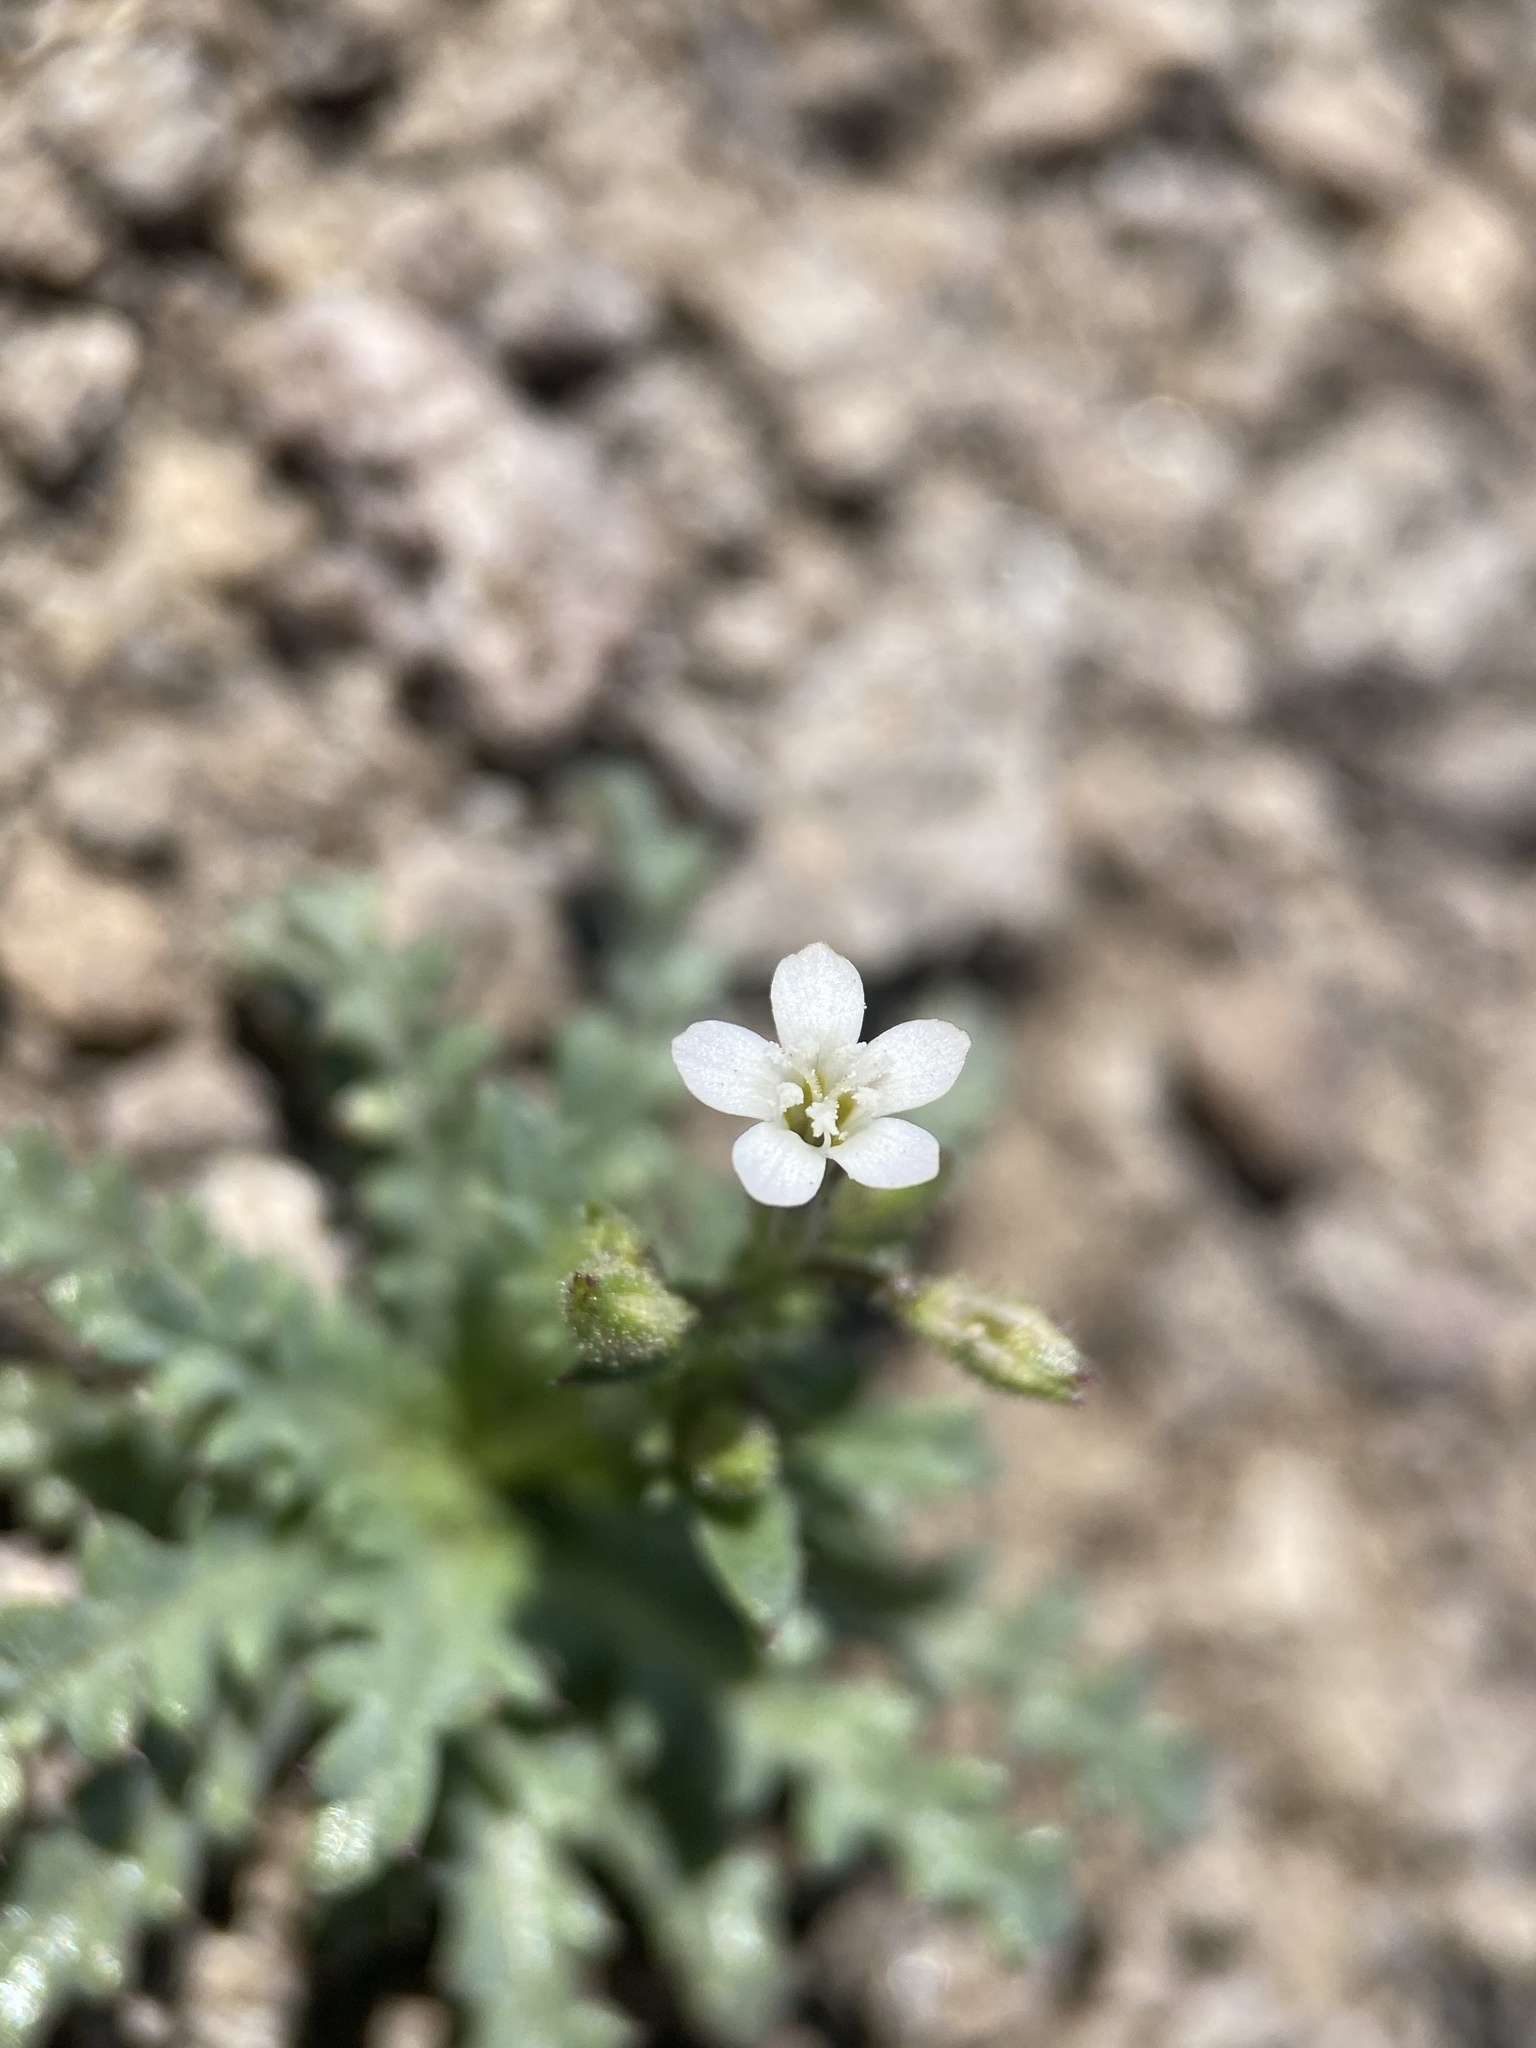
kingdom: Plantae
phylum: Tracheophyta
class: Magnoliopsida
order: Ericales
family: Polemoniaceae
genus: Gilia
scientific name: Gilia sinuata
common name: Rosy gilia
